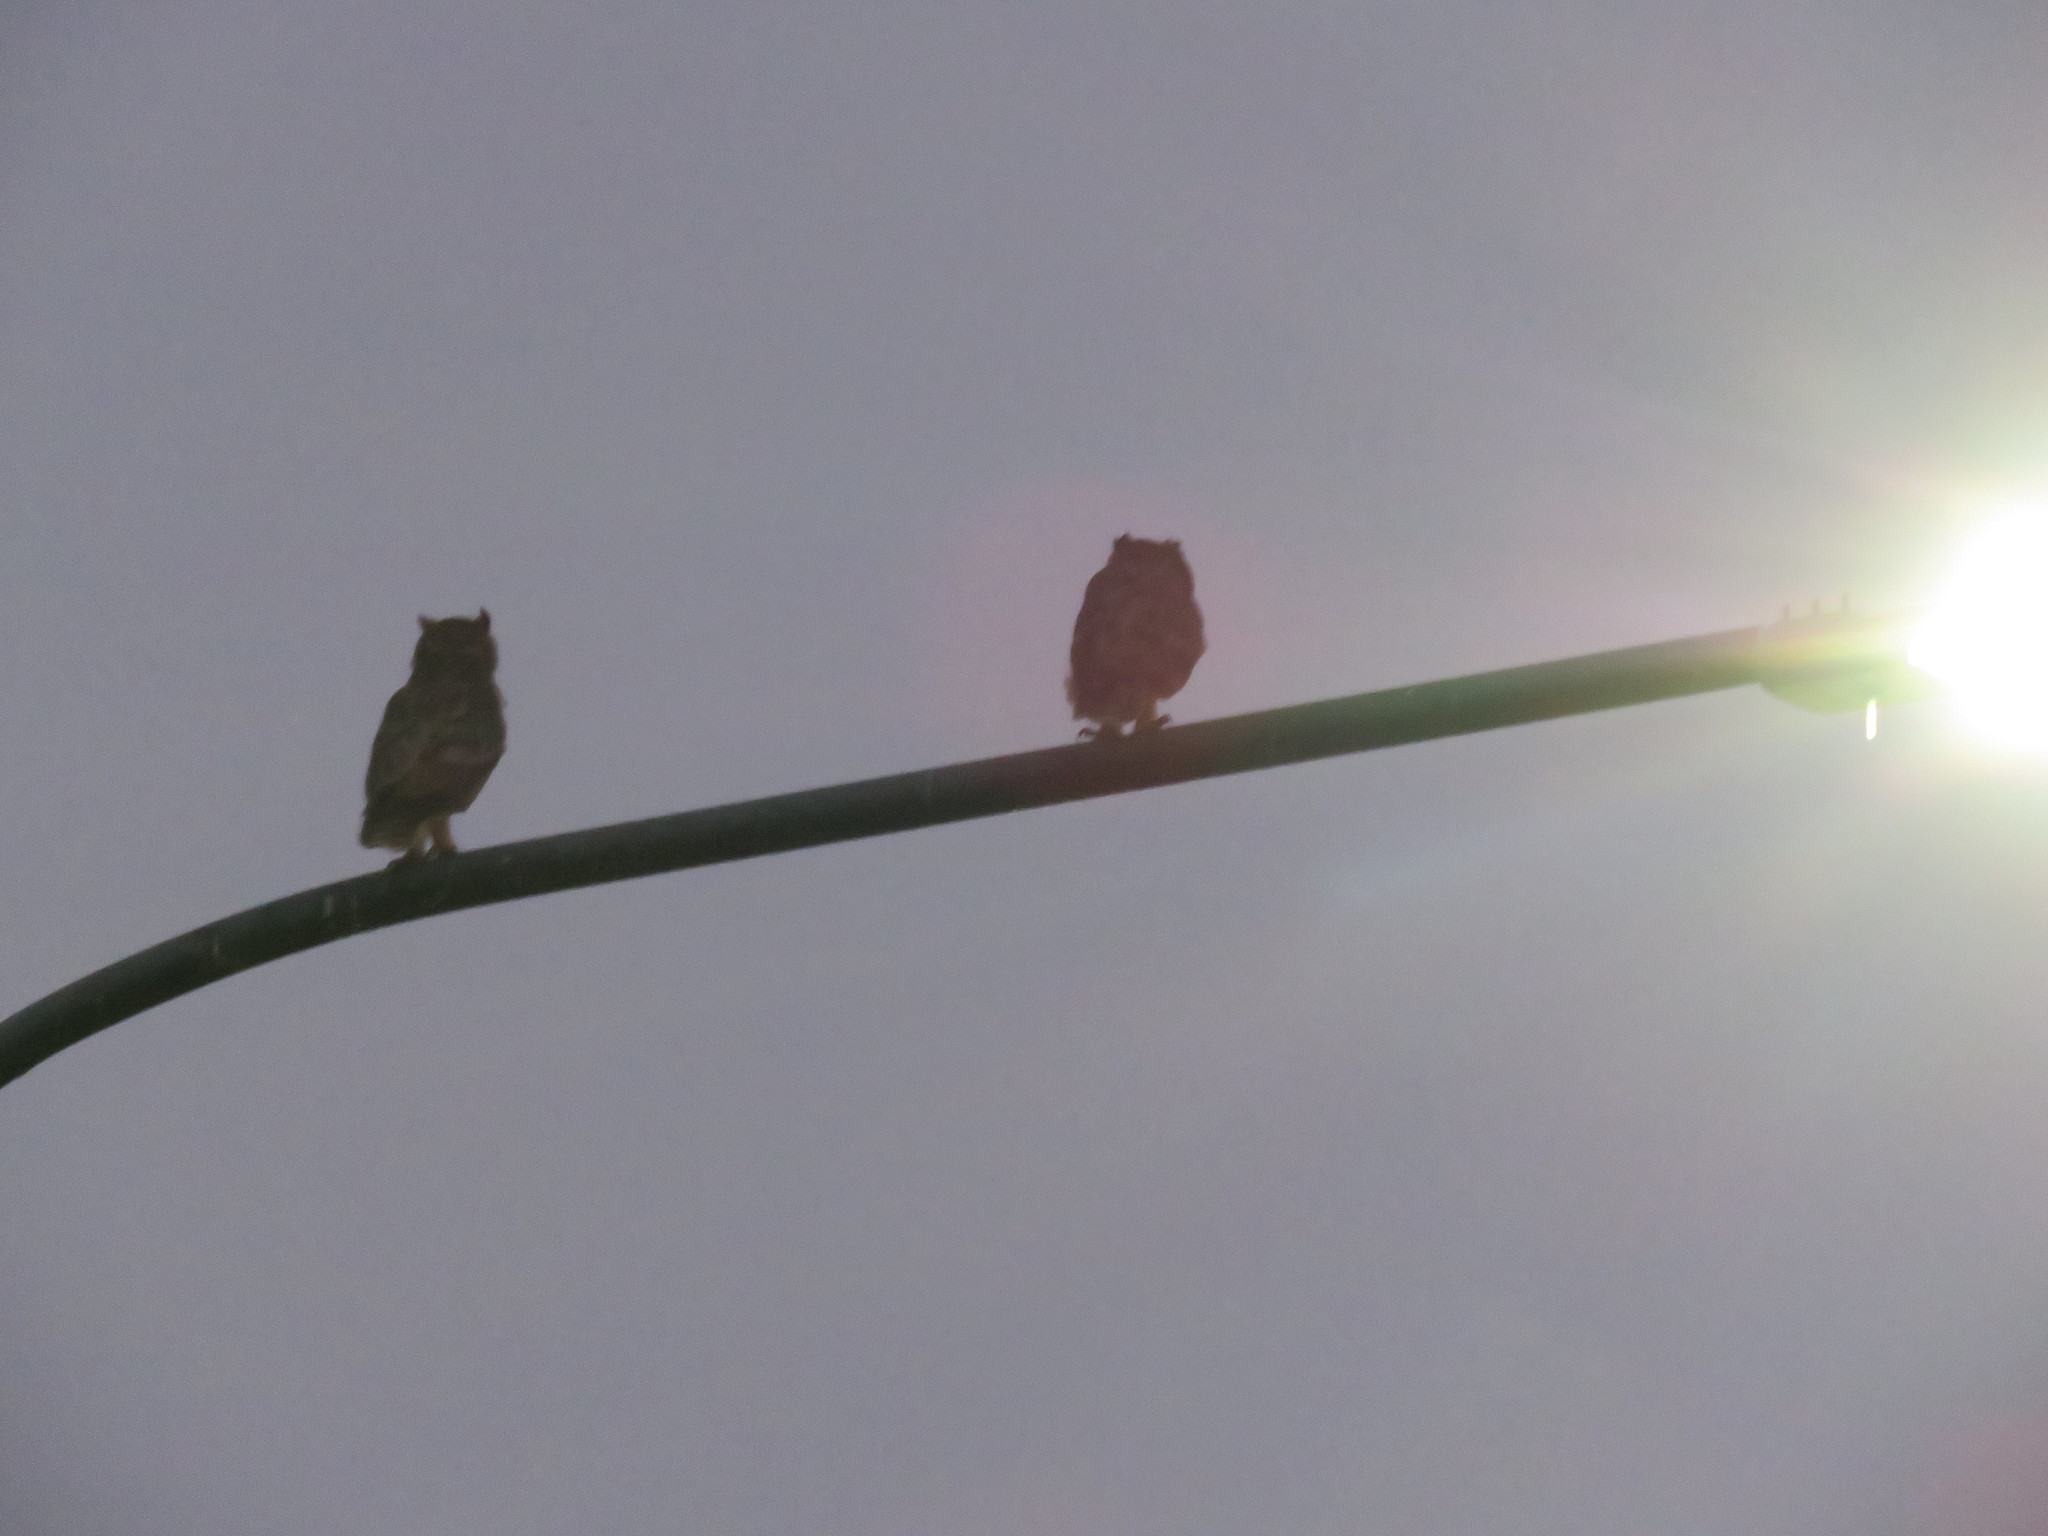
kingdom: Animalia
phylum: Chordata
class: Aves
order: Strigiformes
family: Strigidae
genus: Bubo
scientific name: Bubo virginianus
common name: Great horned owl
